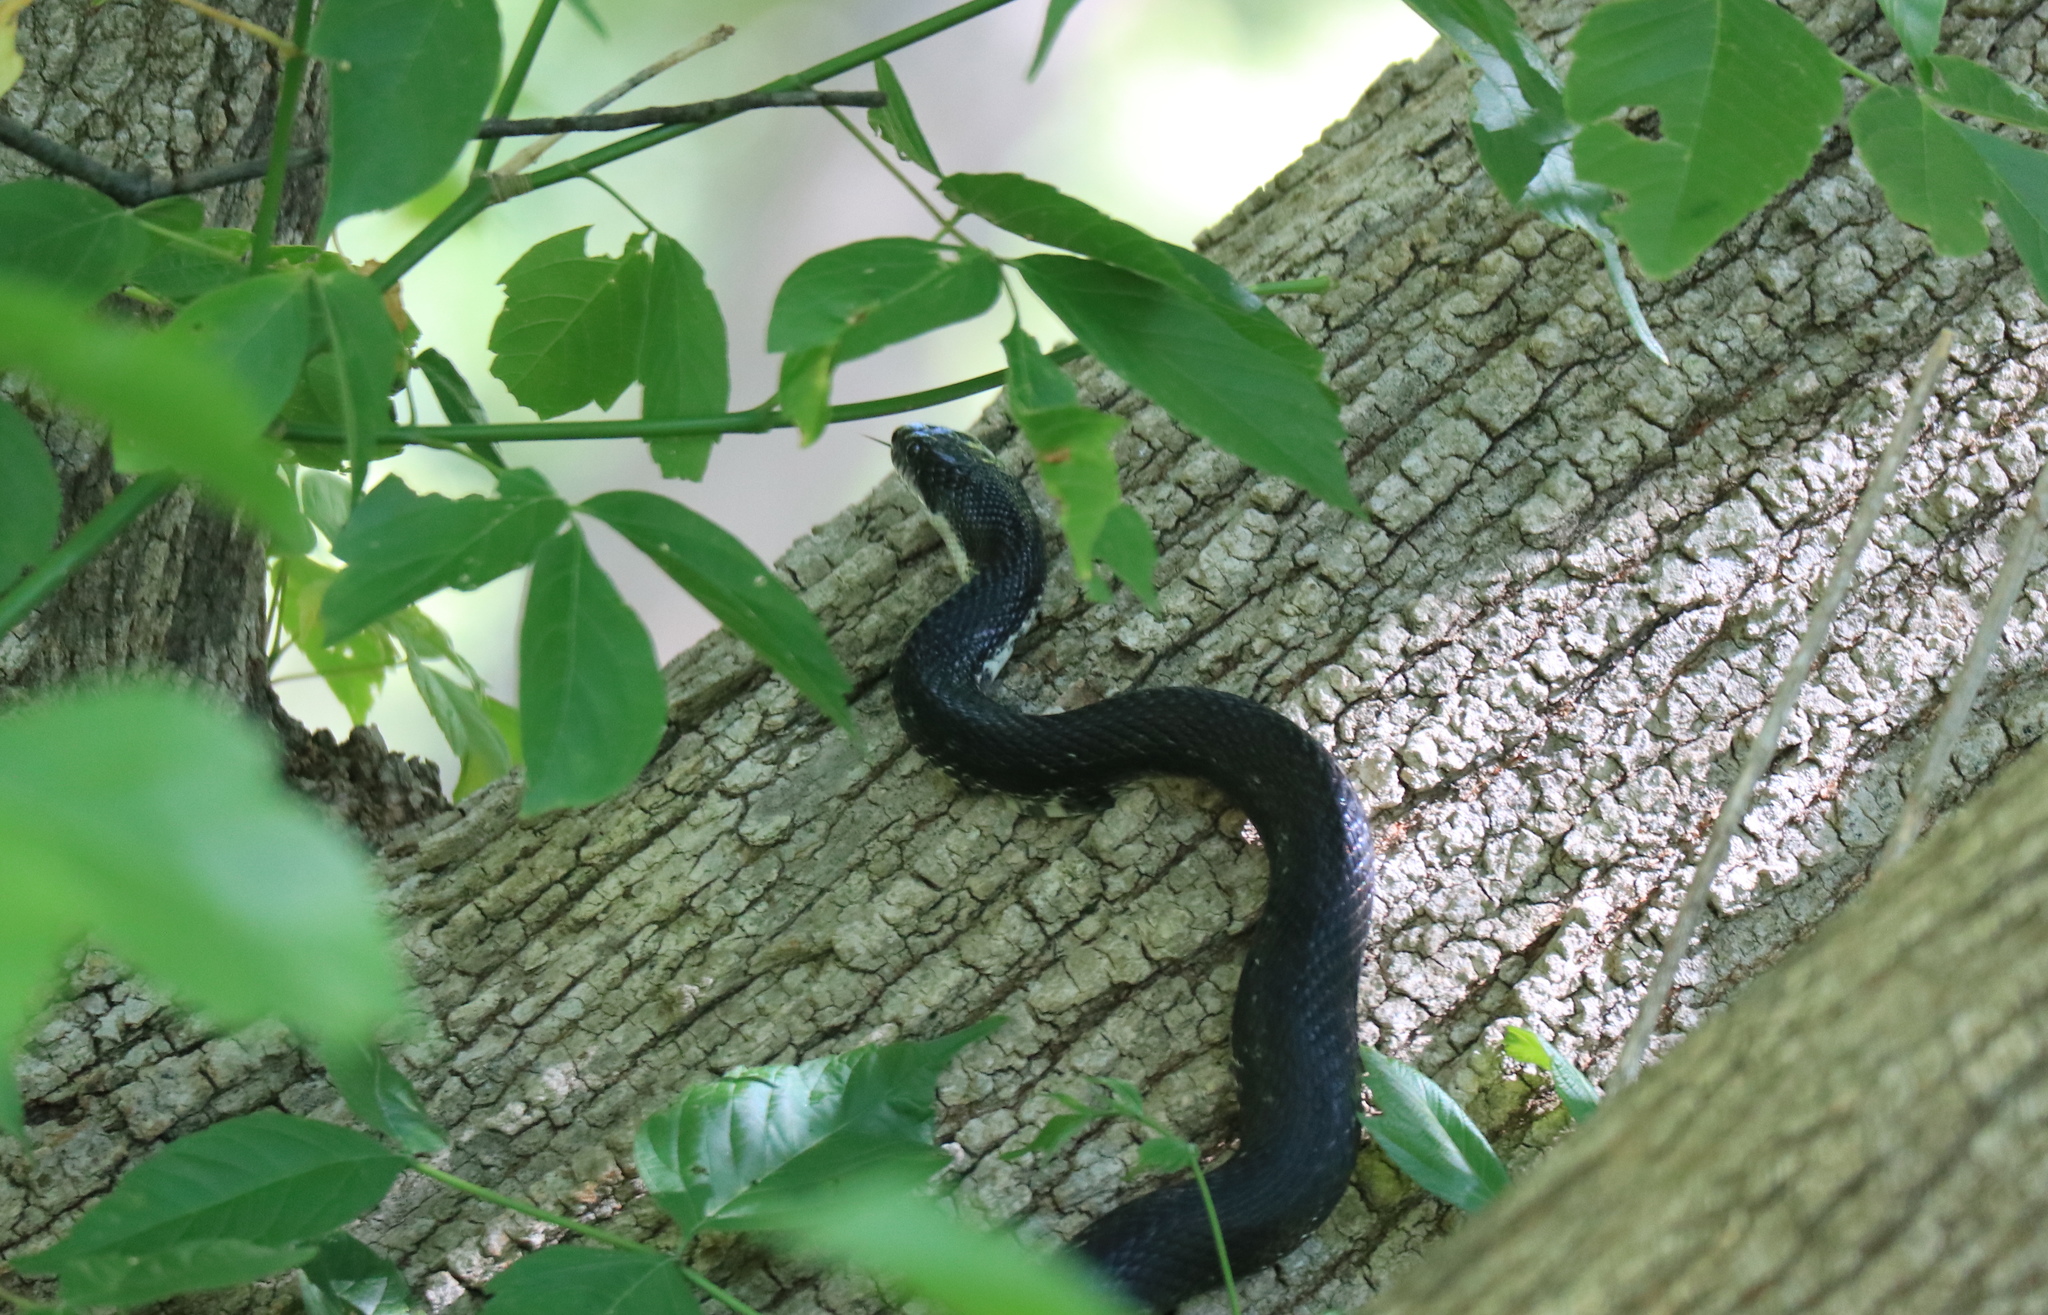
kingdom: Animalia
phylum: Chordata
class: Squamata
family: Colubridae
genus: Pantherophis
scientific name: Pantherophis alleghaniensis
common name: Eastern rat snake
